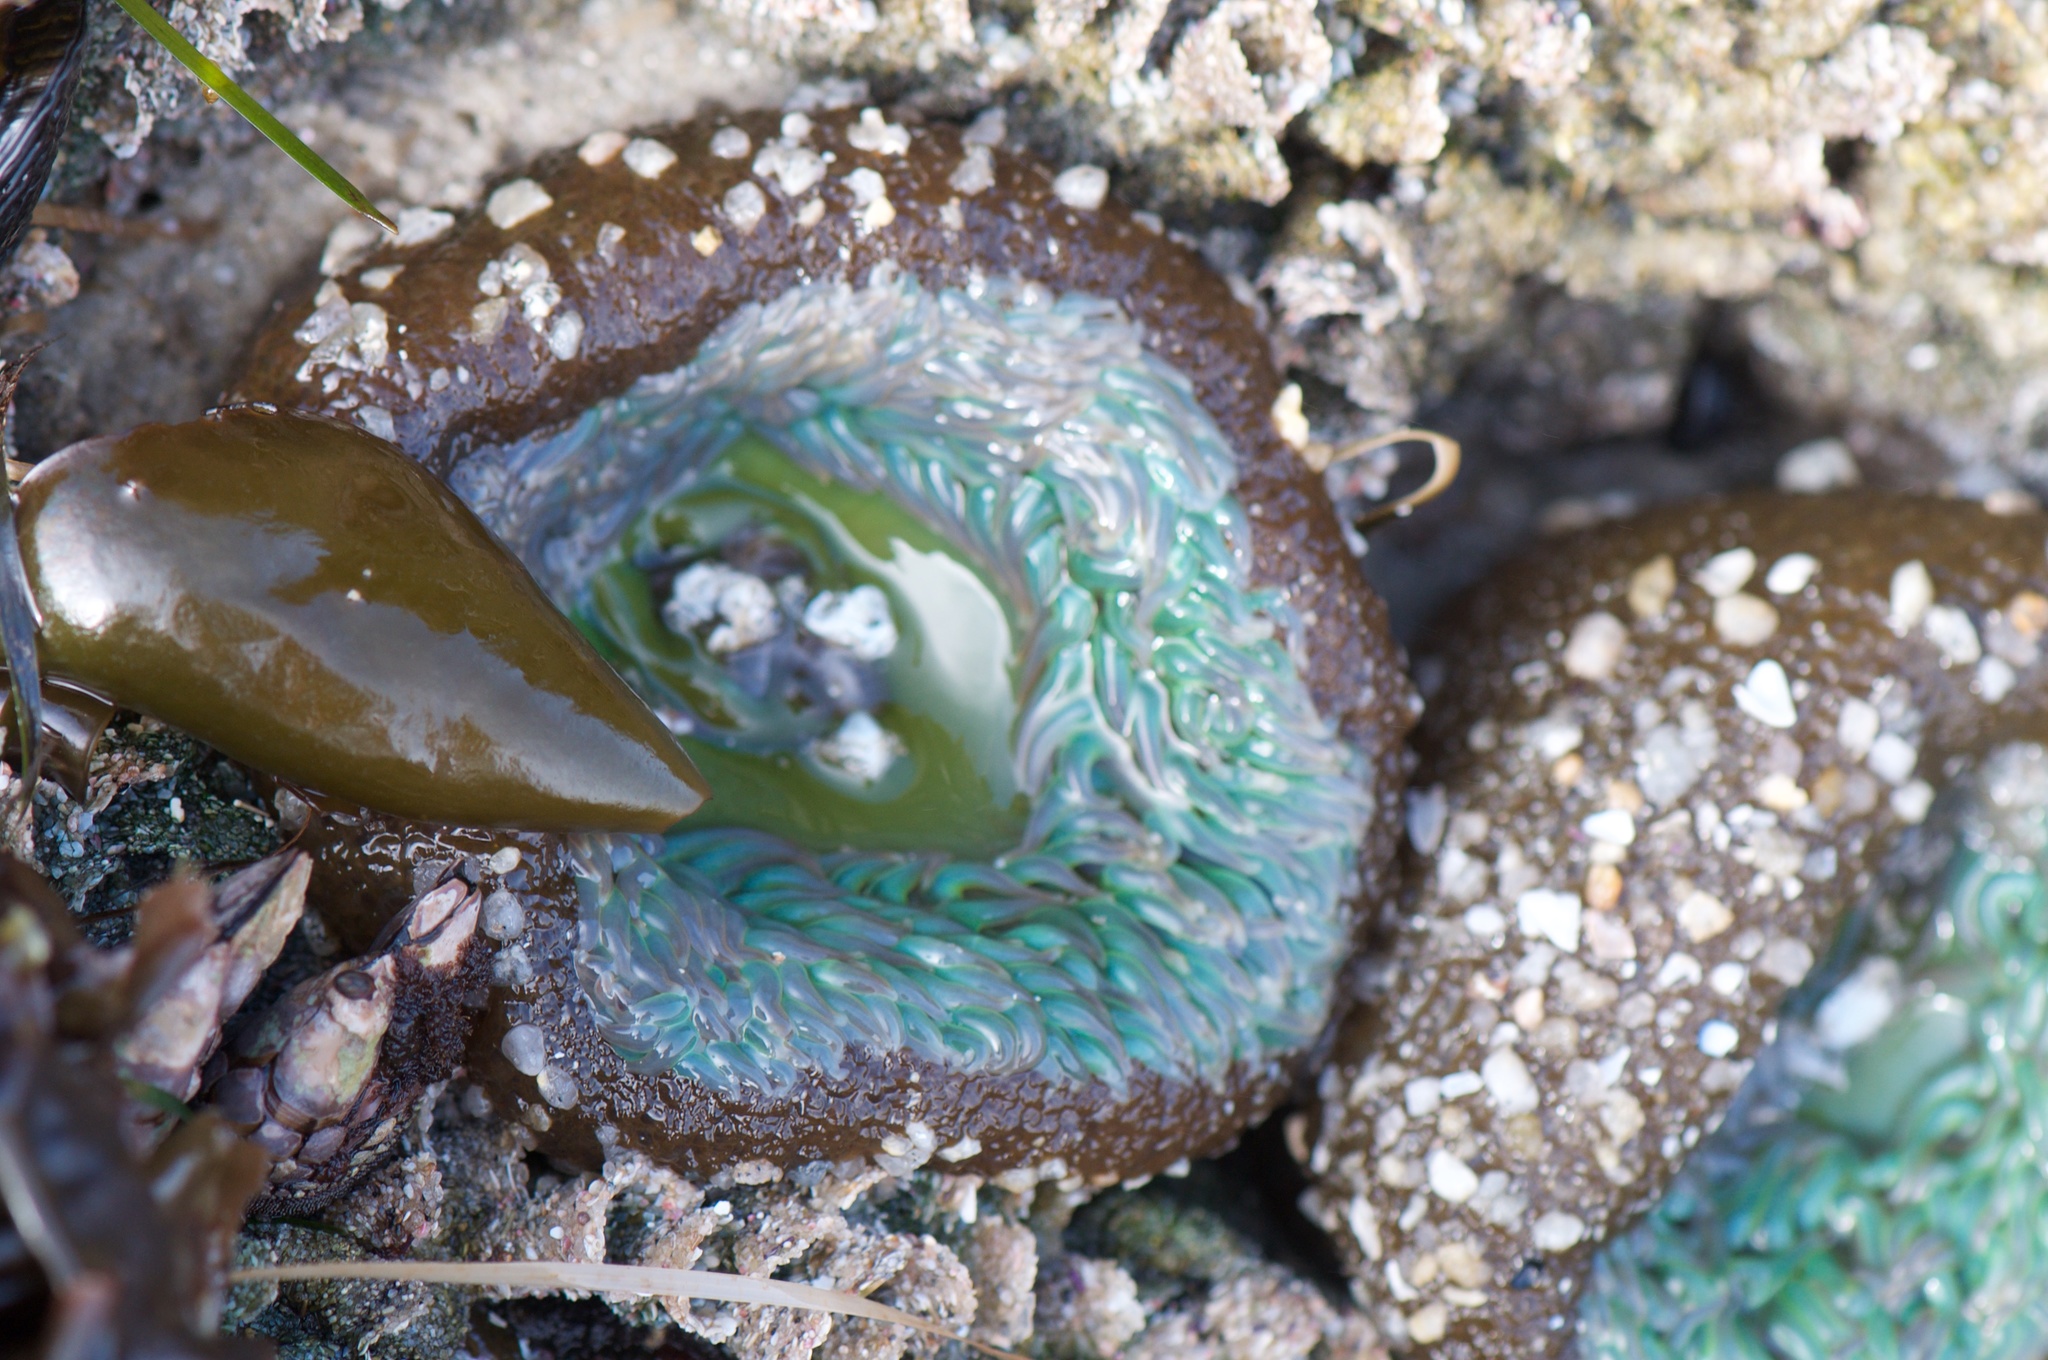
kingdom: Animalia
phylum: Cnidaria
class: Anthozoa
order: Actiniaria
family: Actiniidae
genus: Anthopleura
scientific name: Anthopleura xanthogrammica
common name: Giant green anemone
